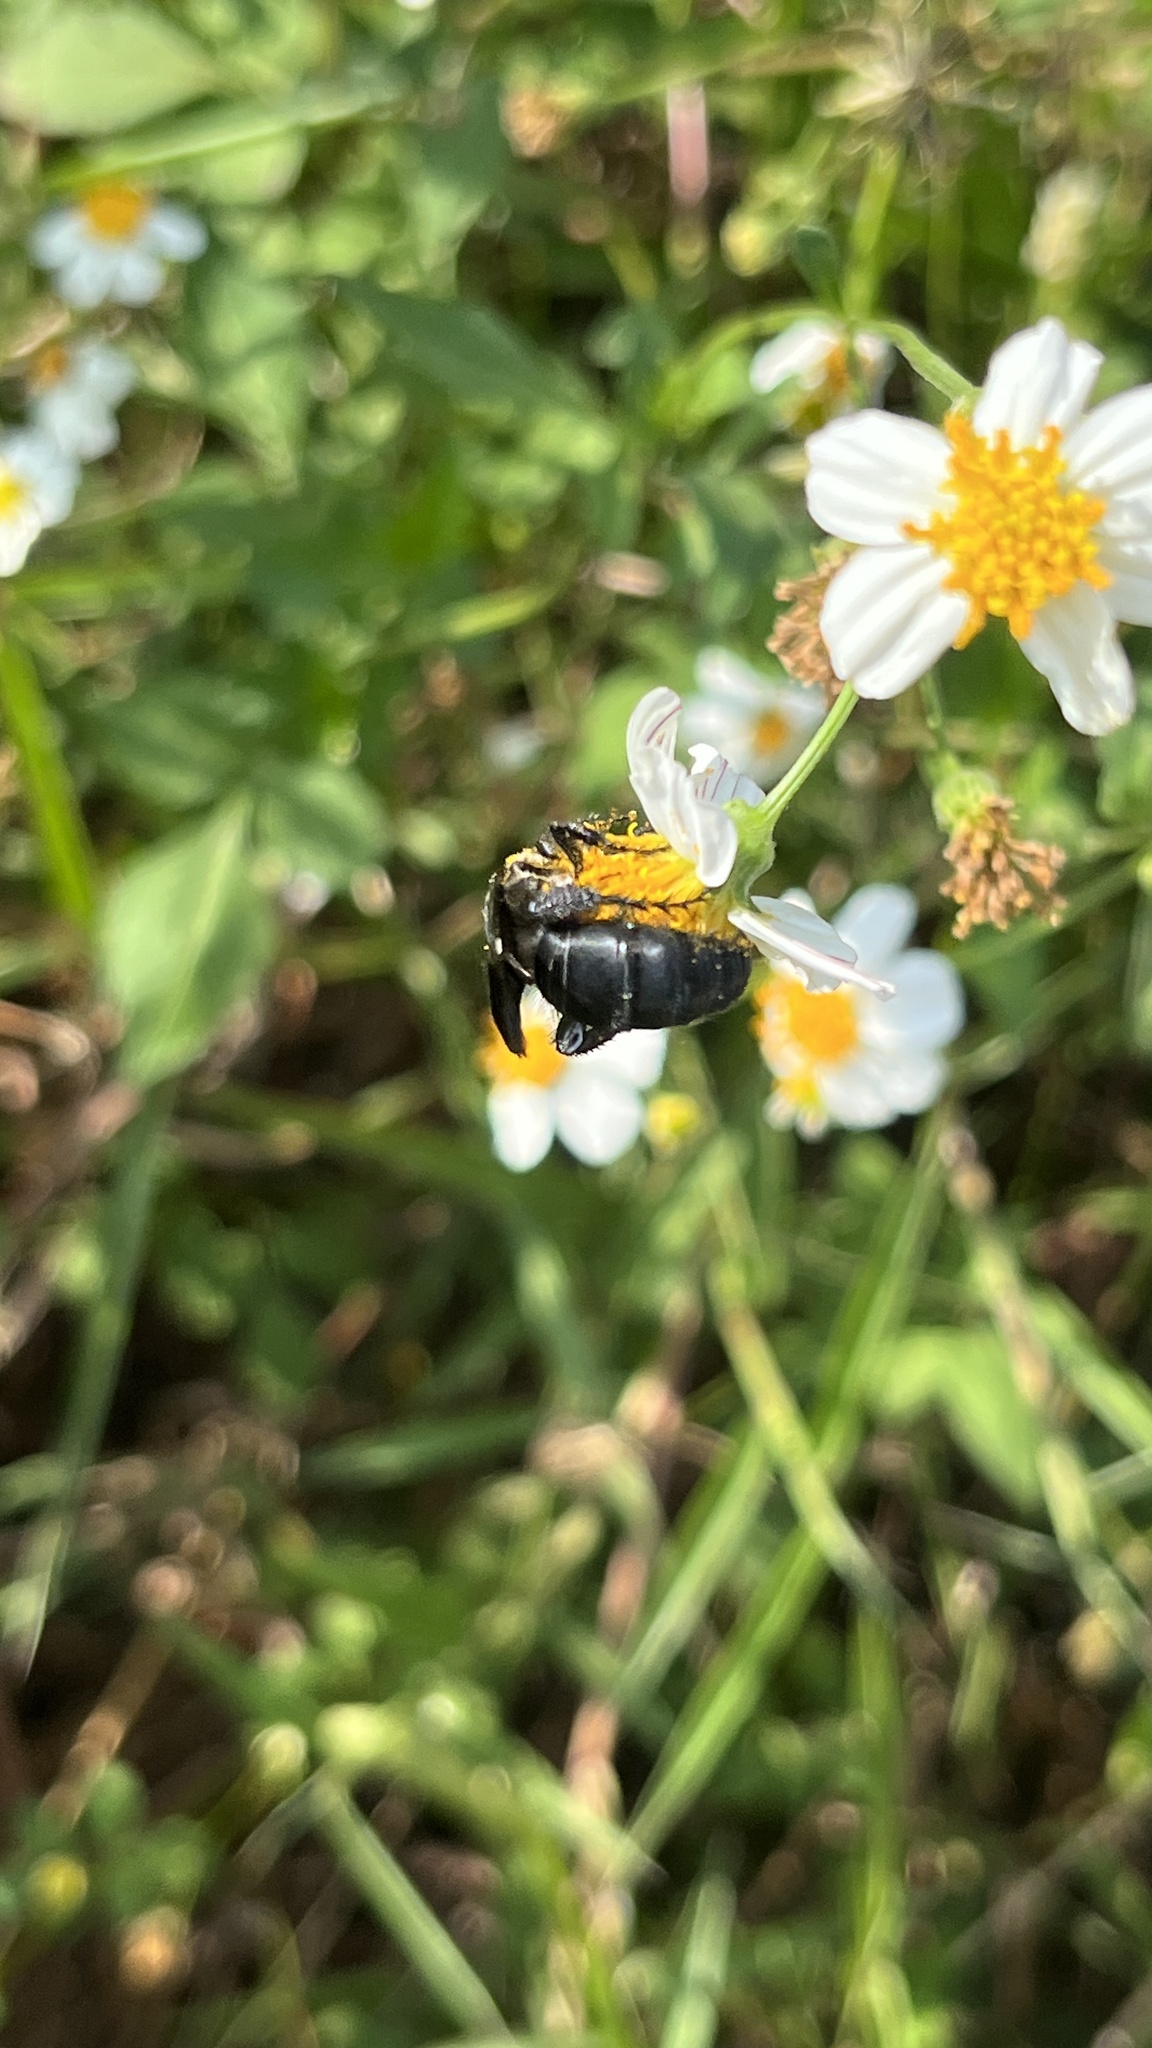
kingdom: Animalia
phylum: Arthropoda
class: Insecta
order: Hymenoptera
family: Scoliidae
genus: Campsomeriella
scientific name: Campsomeriella collaris
